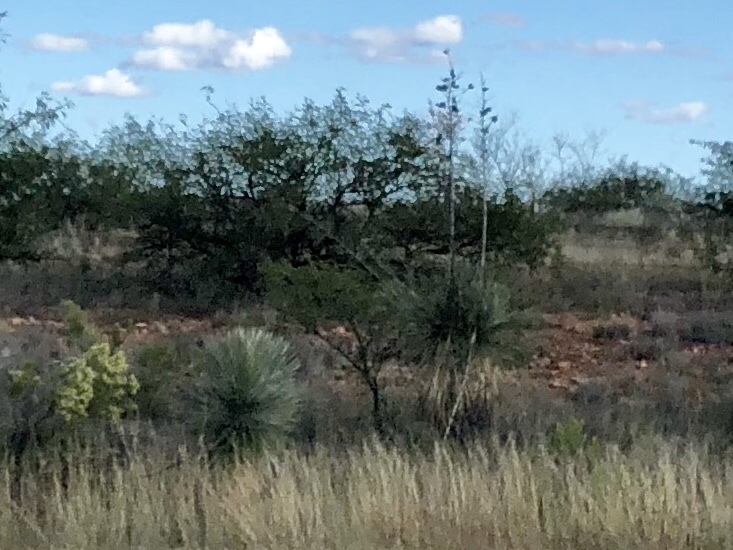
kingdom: Plantae
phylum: Tracheophyta
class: Liliopsida
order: Asparagales
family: Asparagaceae
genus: Yucca
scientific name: Yucca elata
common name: Palmella
